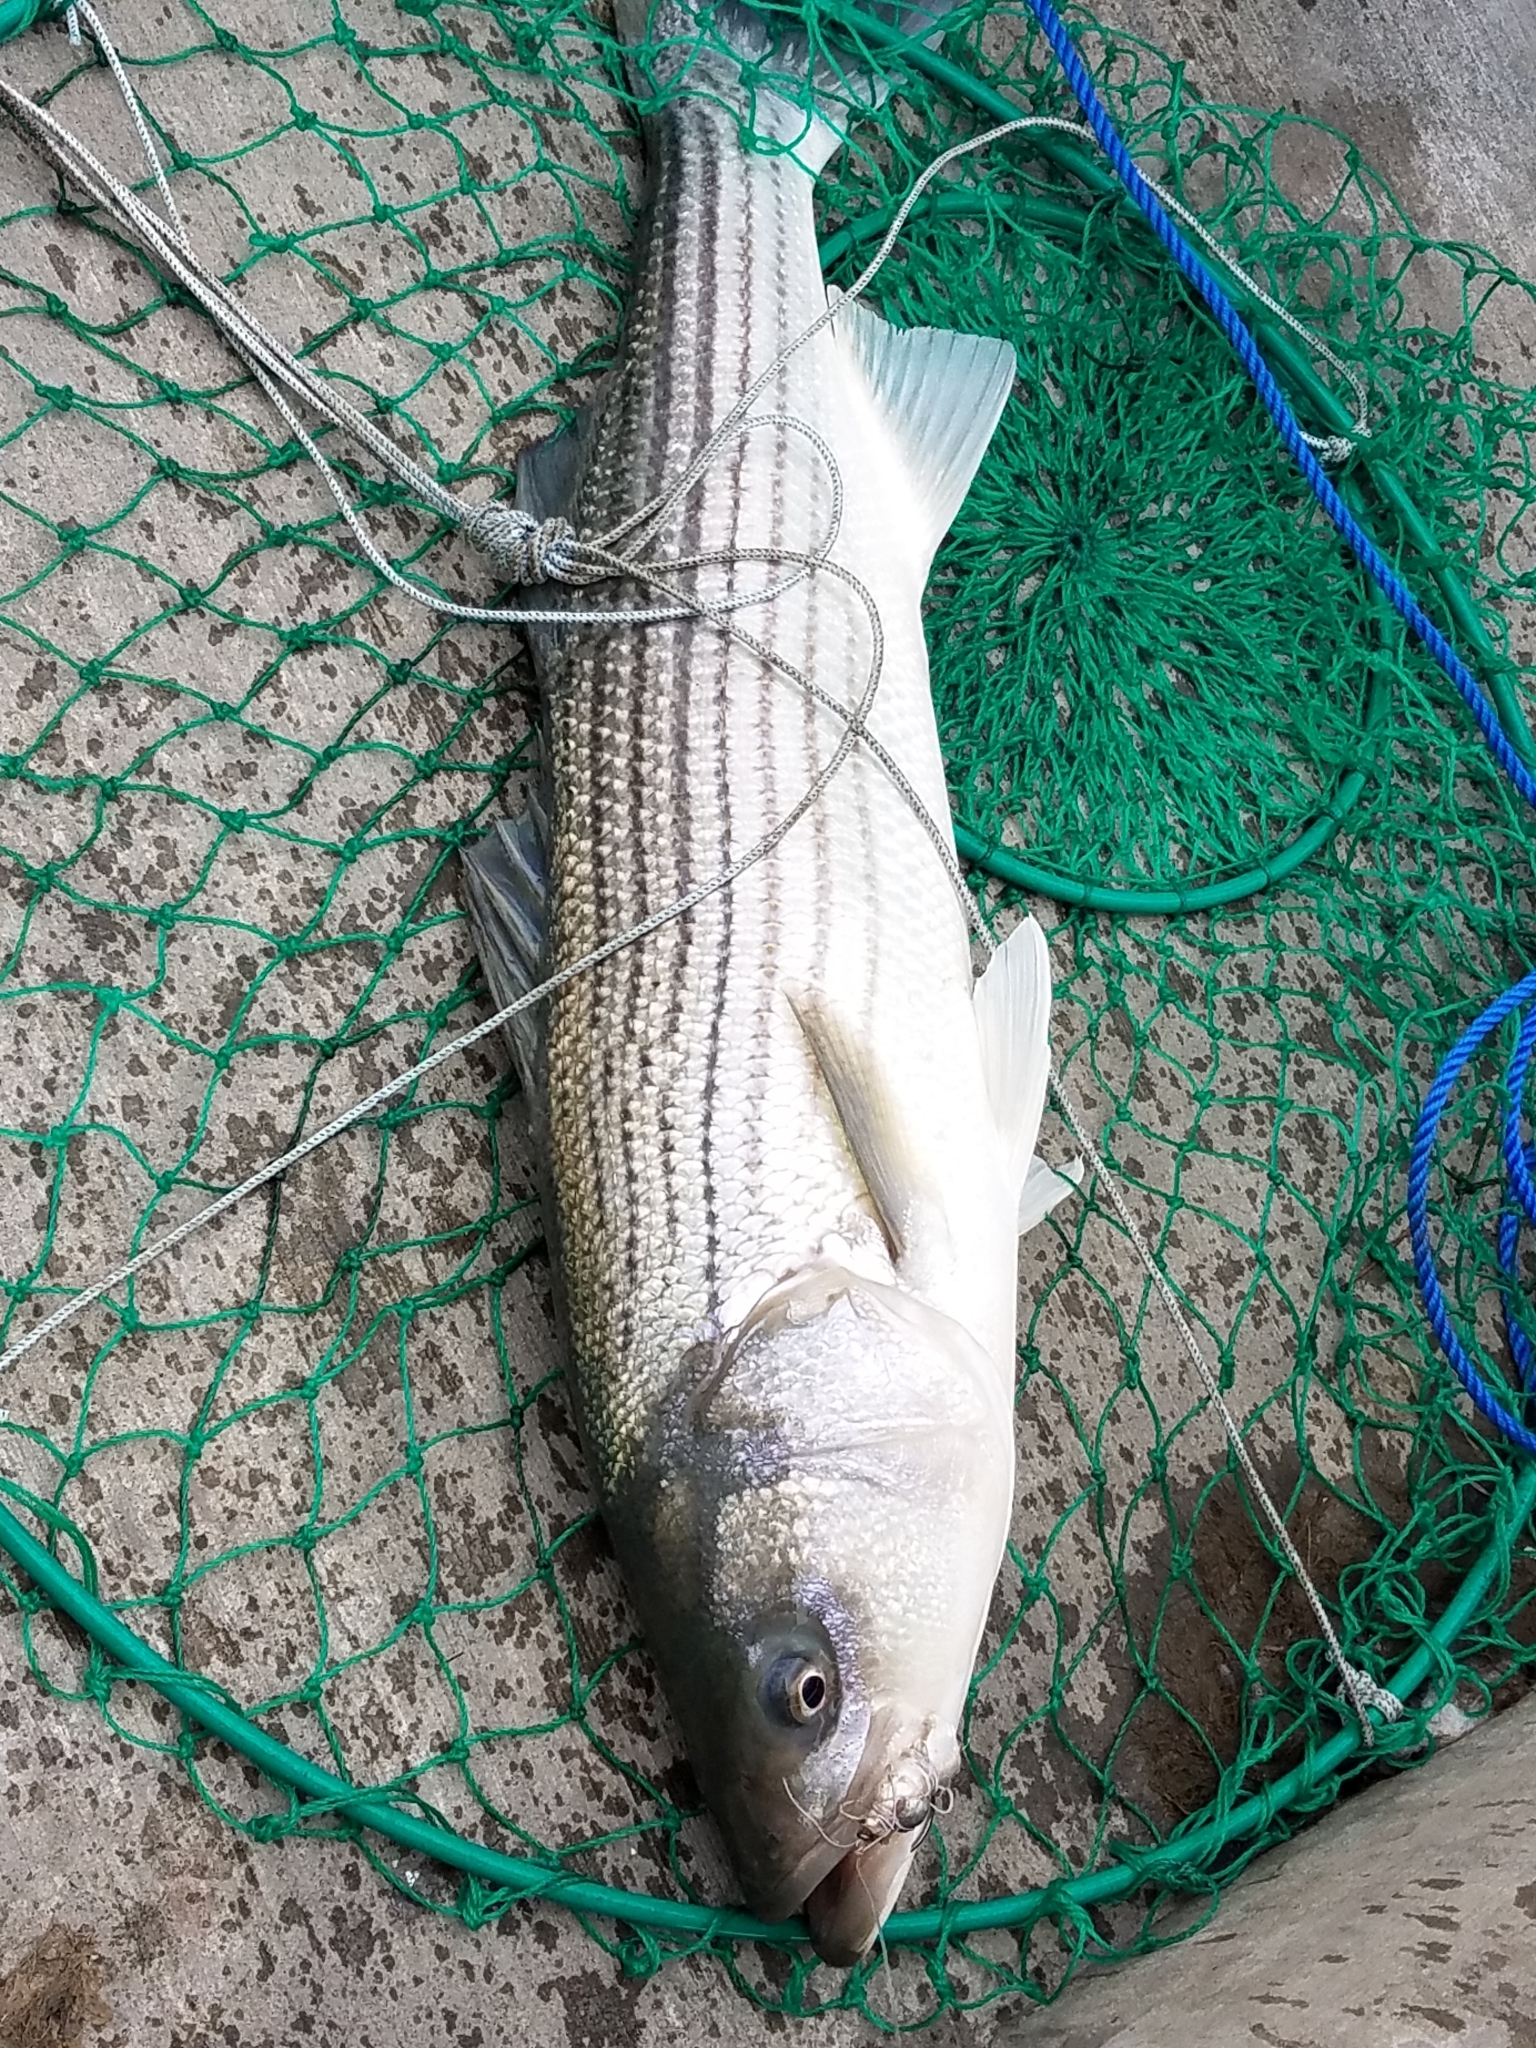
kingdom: Animalia
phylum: Chordata
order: Perciformes
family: Moronidae
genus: Morone
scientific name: Morone saxatilis
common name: Striped bass
